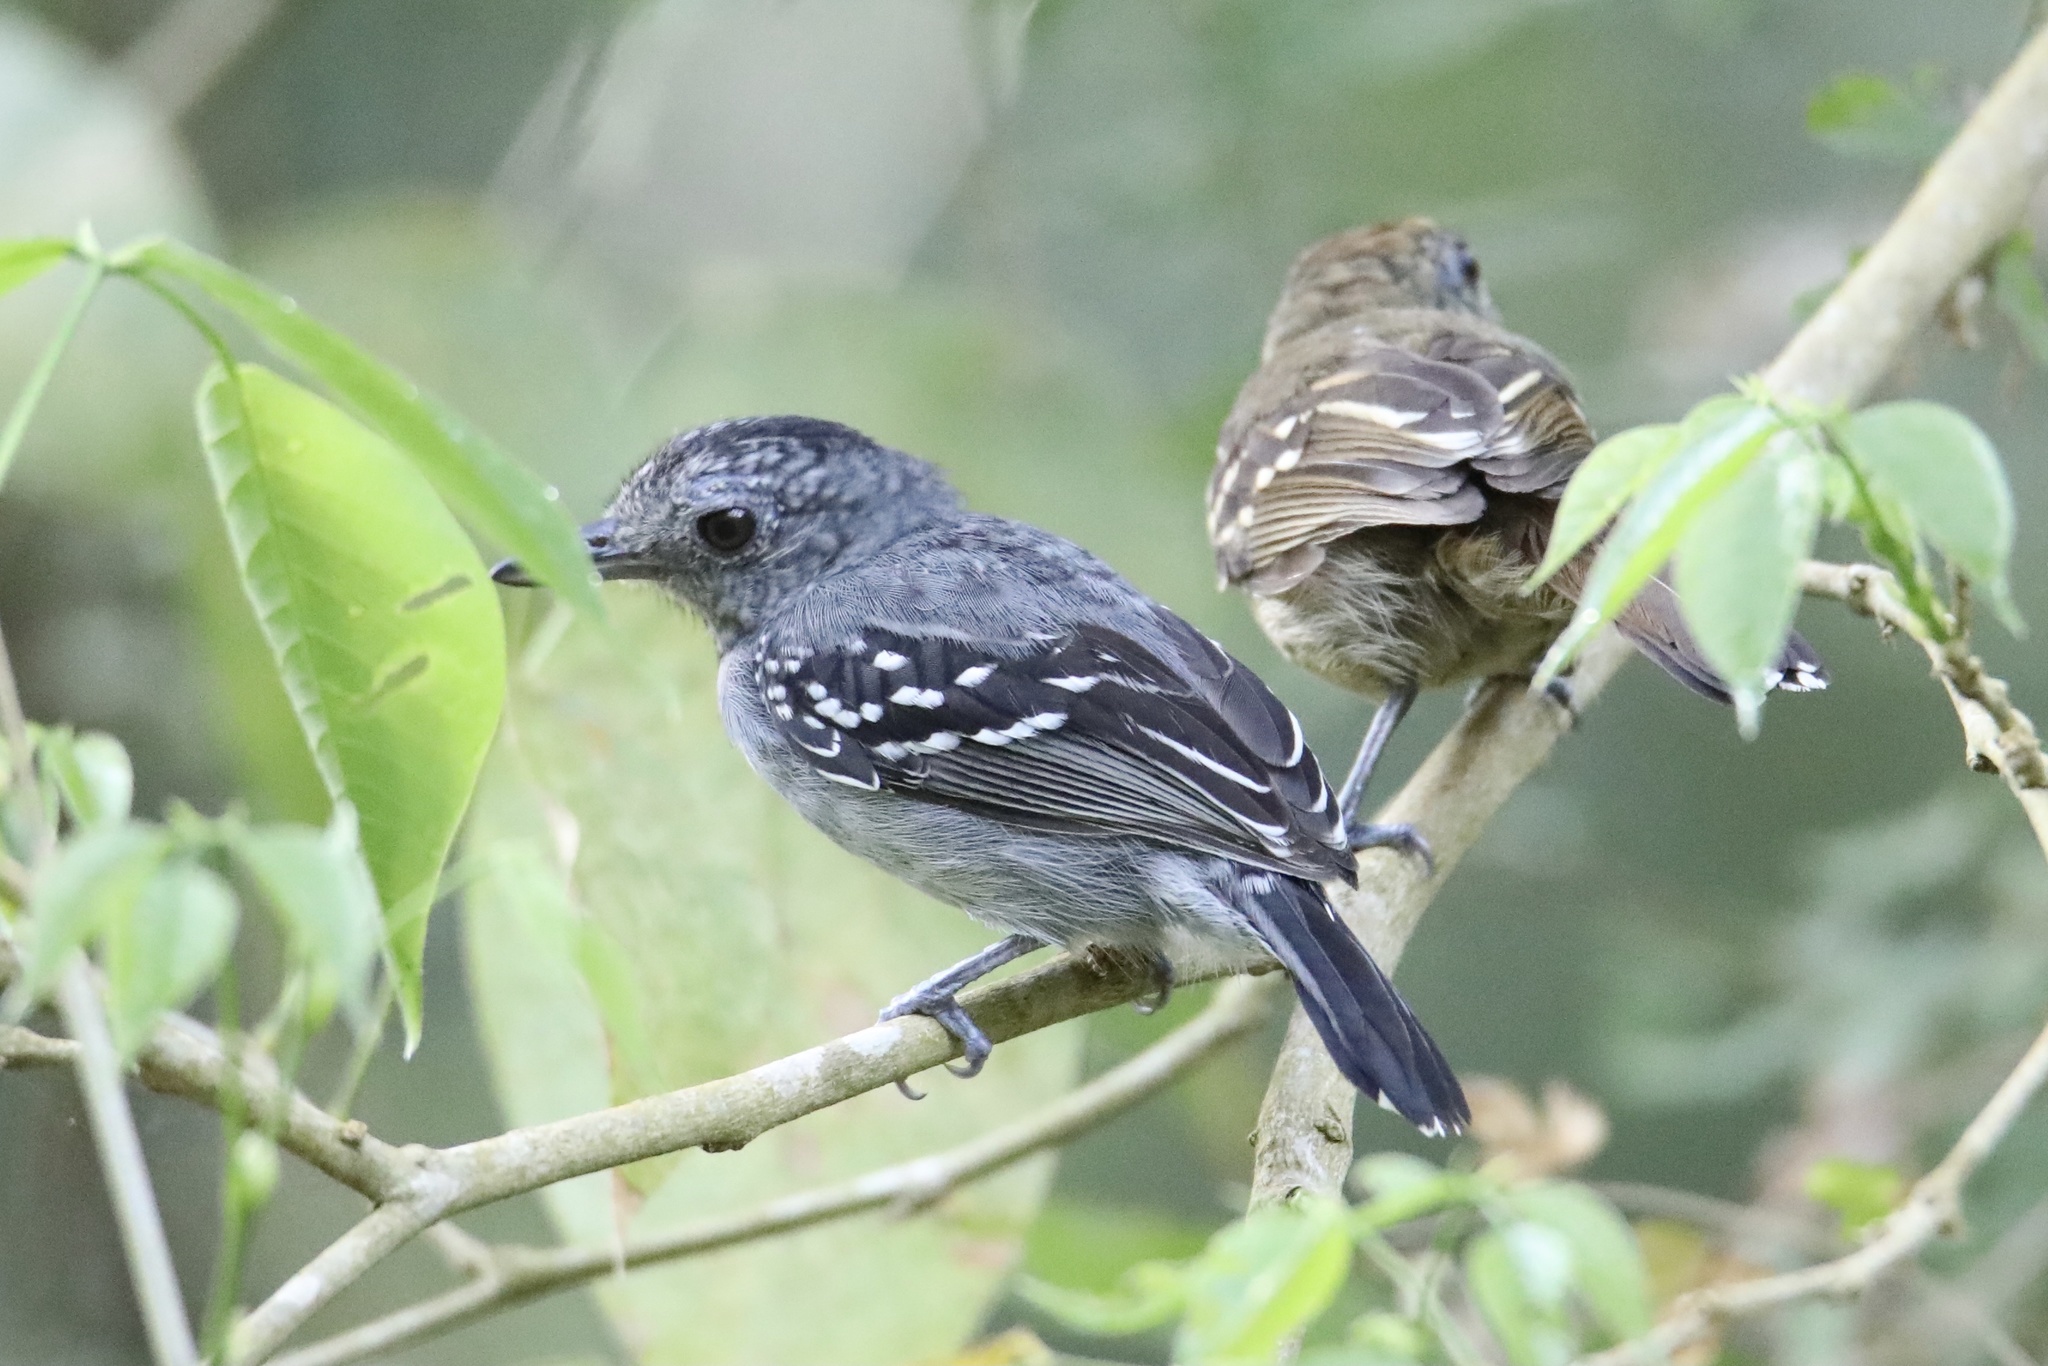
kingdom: Animalia
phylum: Chordata
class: Aves
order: Passeriformes
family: Thamnophilidae
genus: Thamnophilus
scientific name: Thamnophilus atrinucha
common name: Black-crowned antshrike
